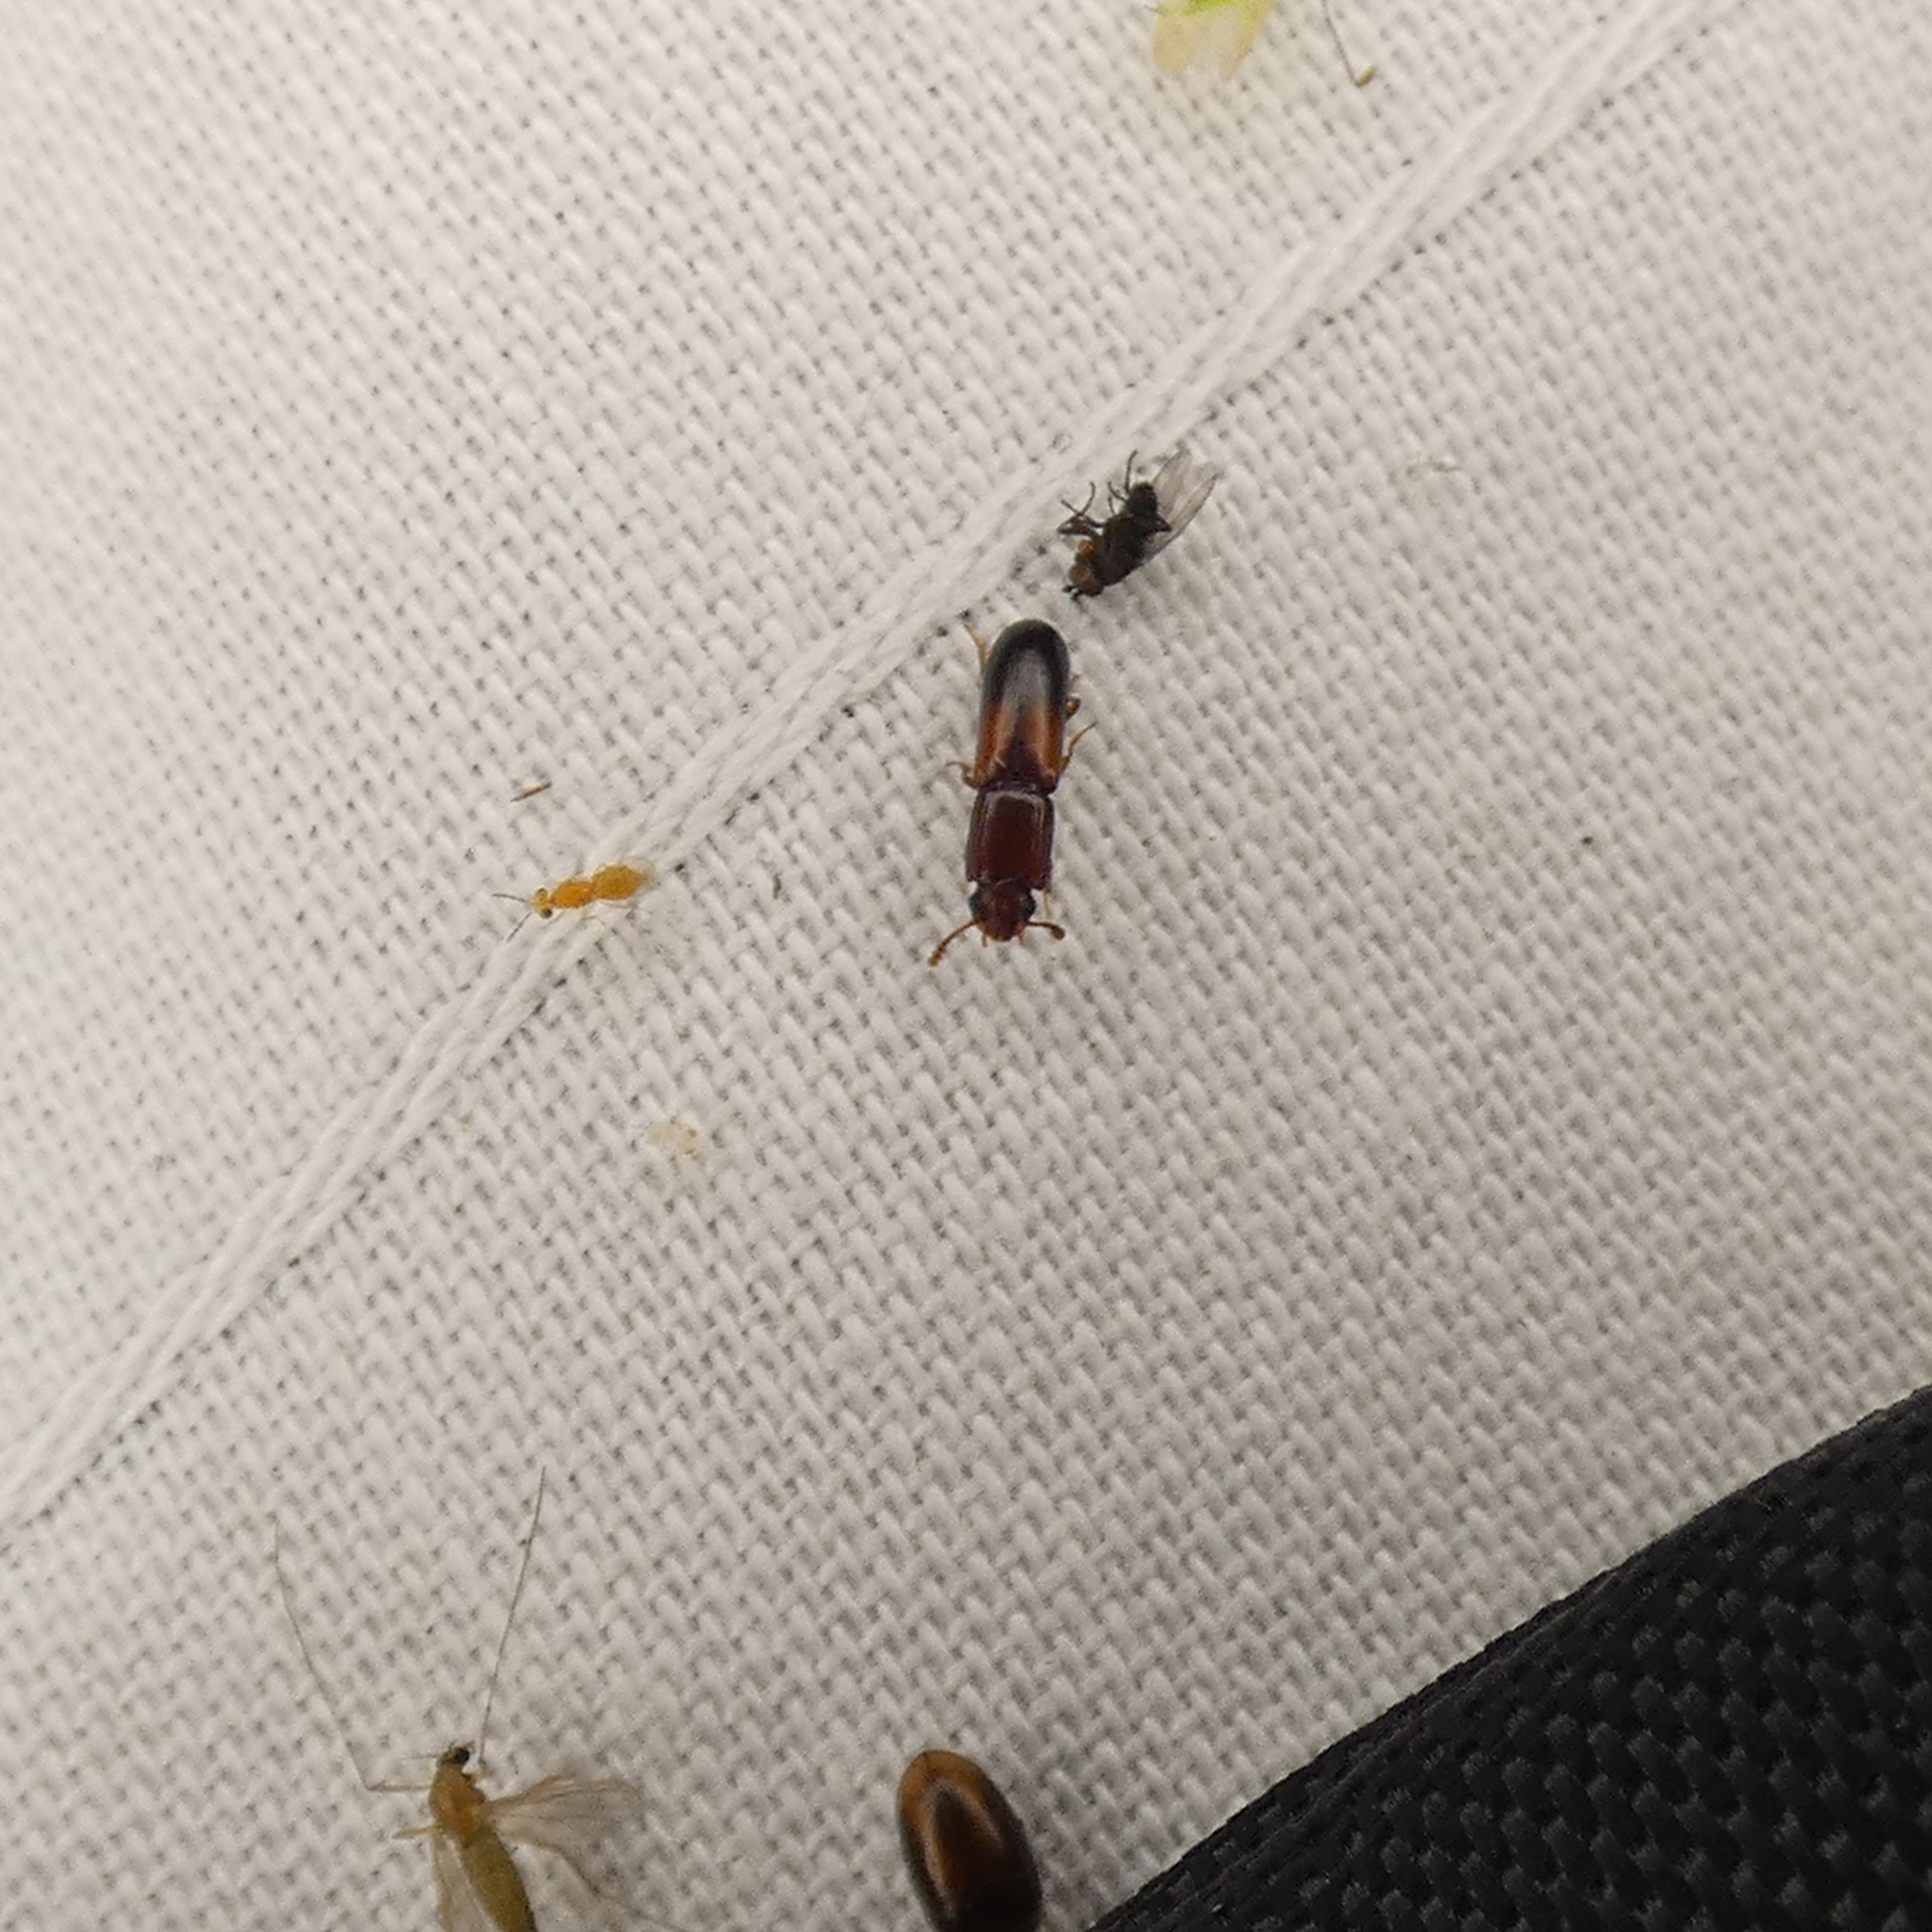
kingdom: Animalia
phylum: Arthropoda
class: Insecta
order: Coleoptera
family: Zopheridae
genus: Aulonium
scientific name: Aulonium tuberculatum
